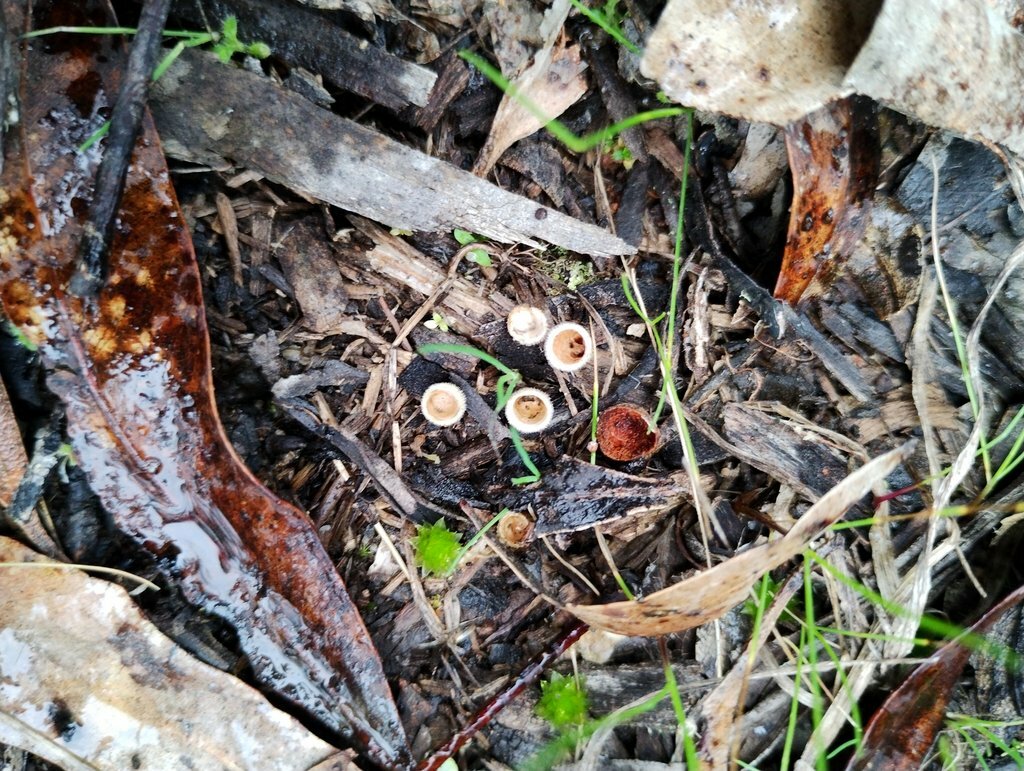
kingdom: Fungi
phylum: Basidiomycota
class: Agaricomycetes
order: Agaricales
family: Agaricaceae
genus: Nidula
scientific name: Nidula niveotomentosa
